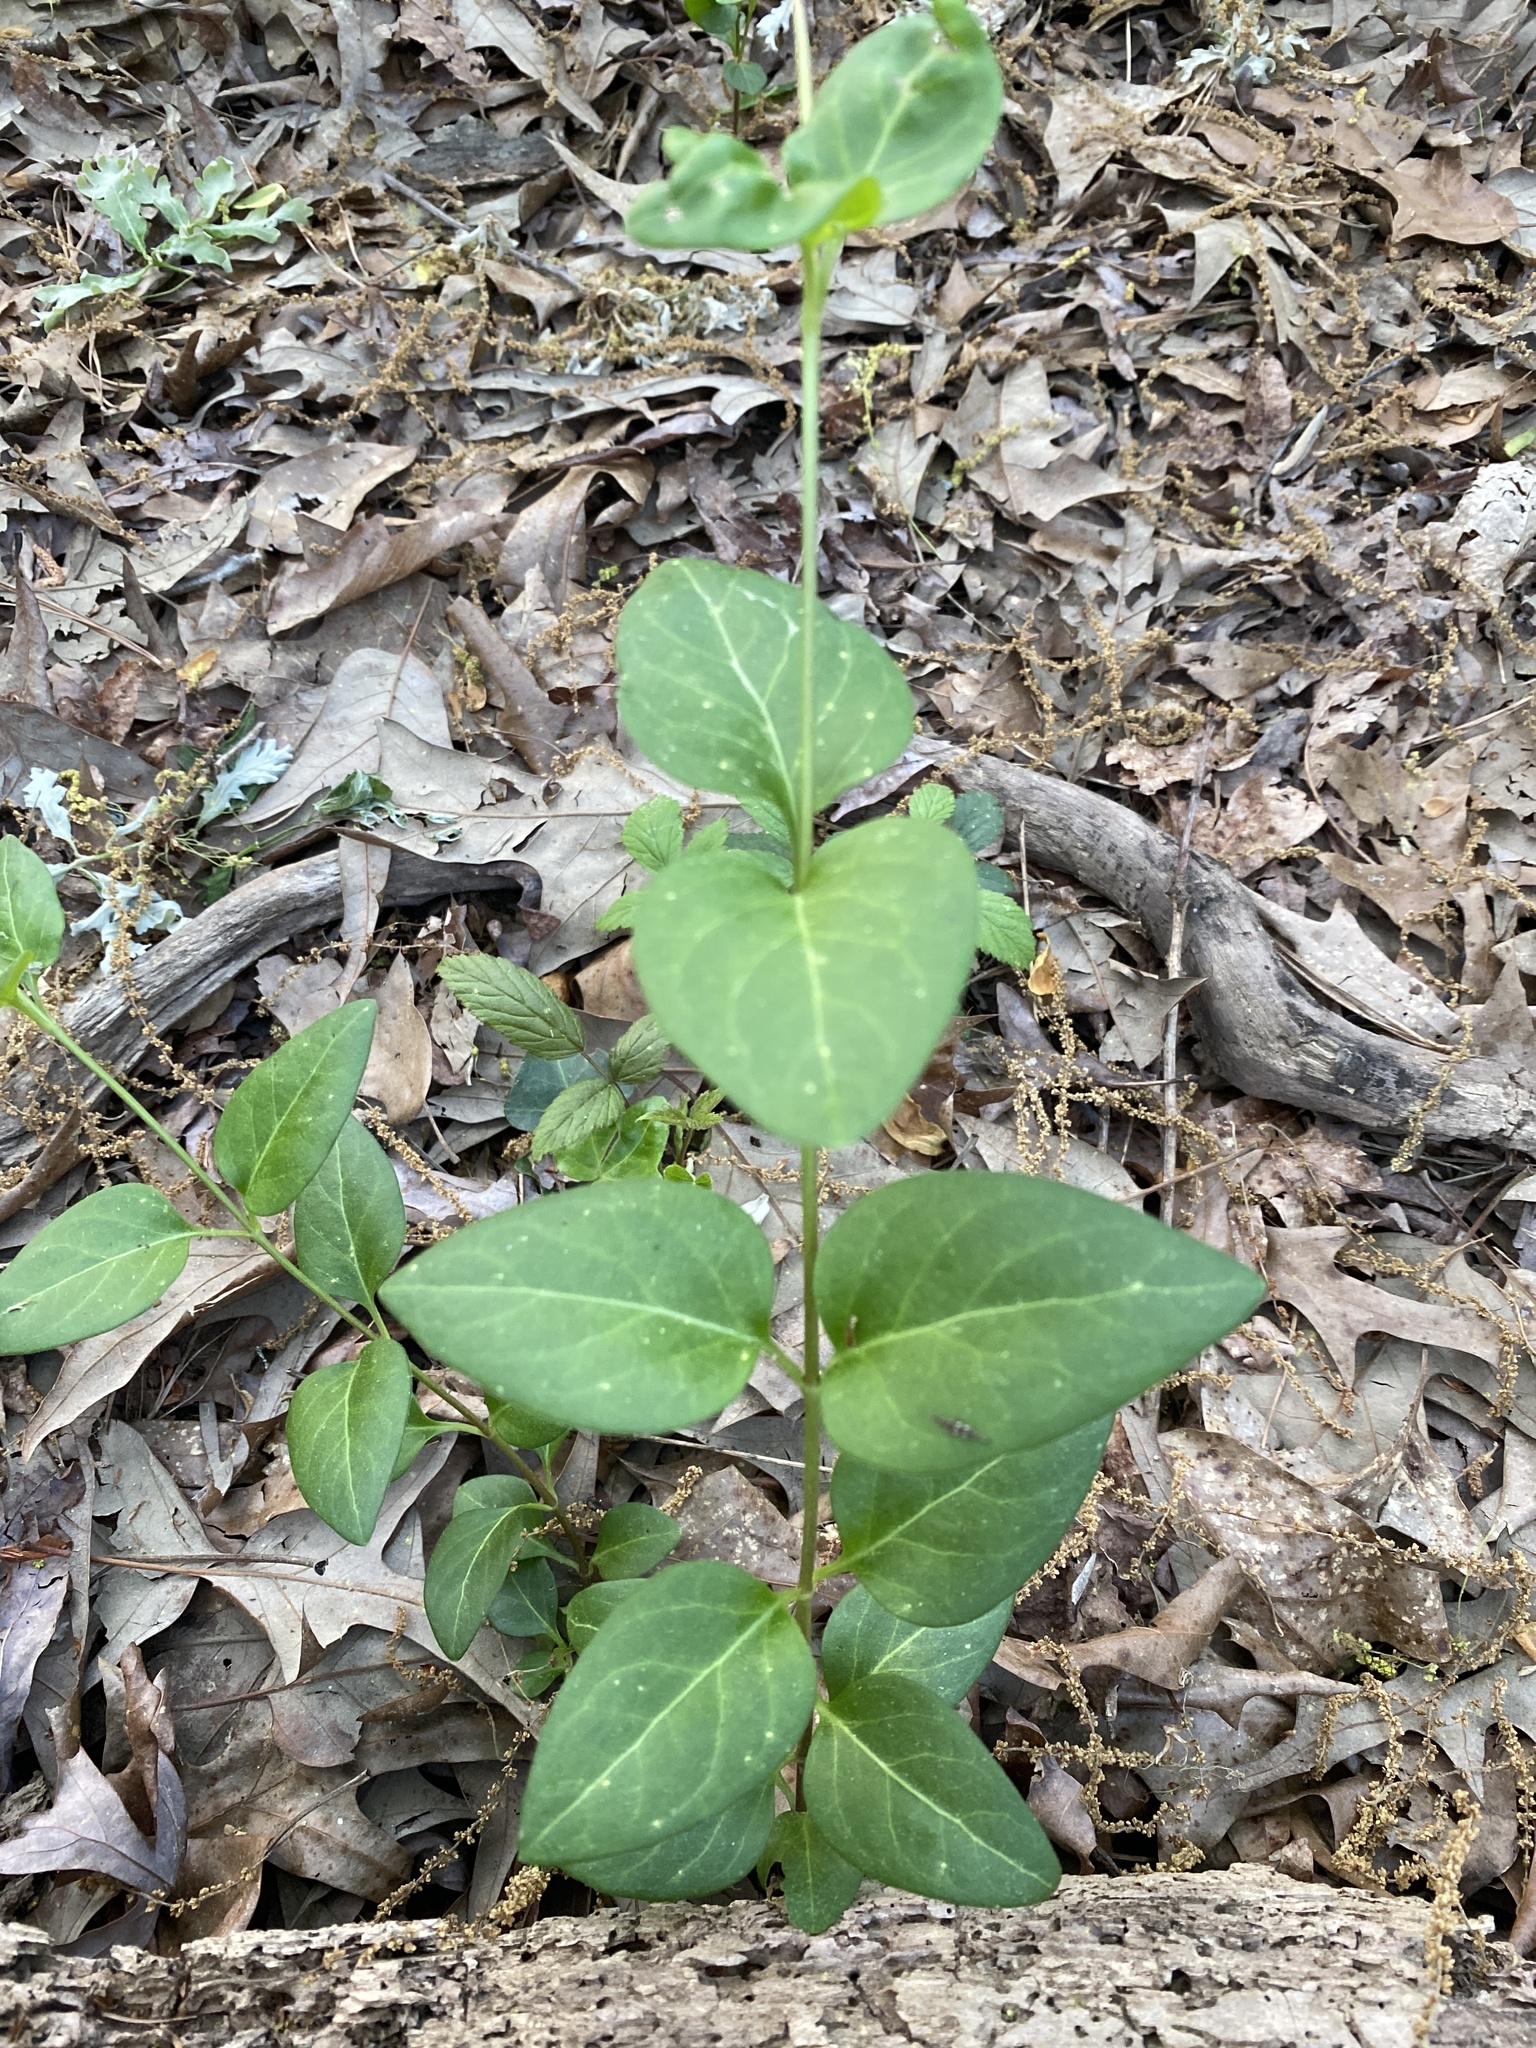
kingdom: Plantae
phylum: Tracheophyta
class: Magnoliopsida
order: Gentianales
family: Apocynaceae
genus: Vinca
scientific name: Vinca major
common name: Greater periwinkle
